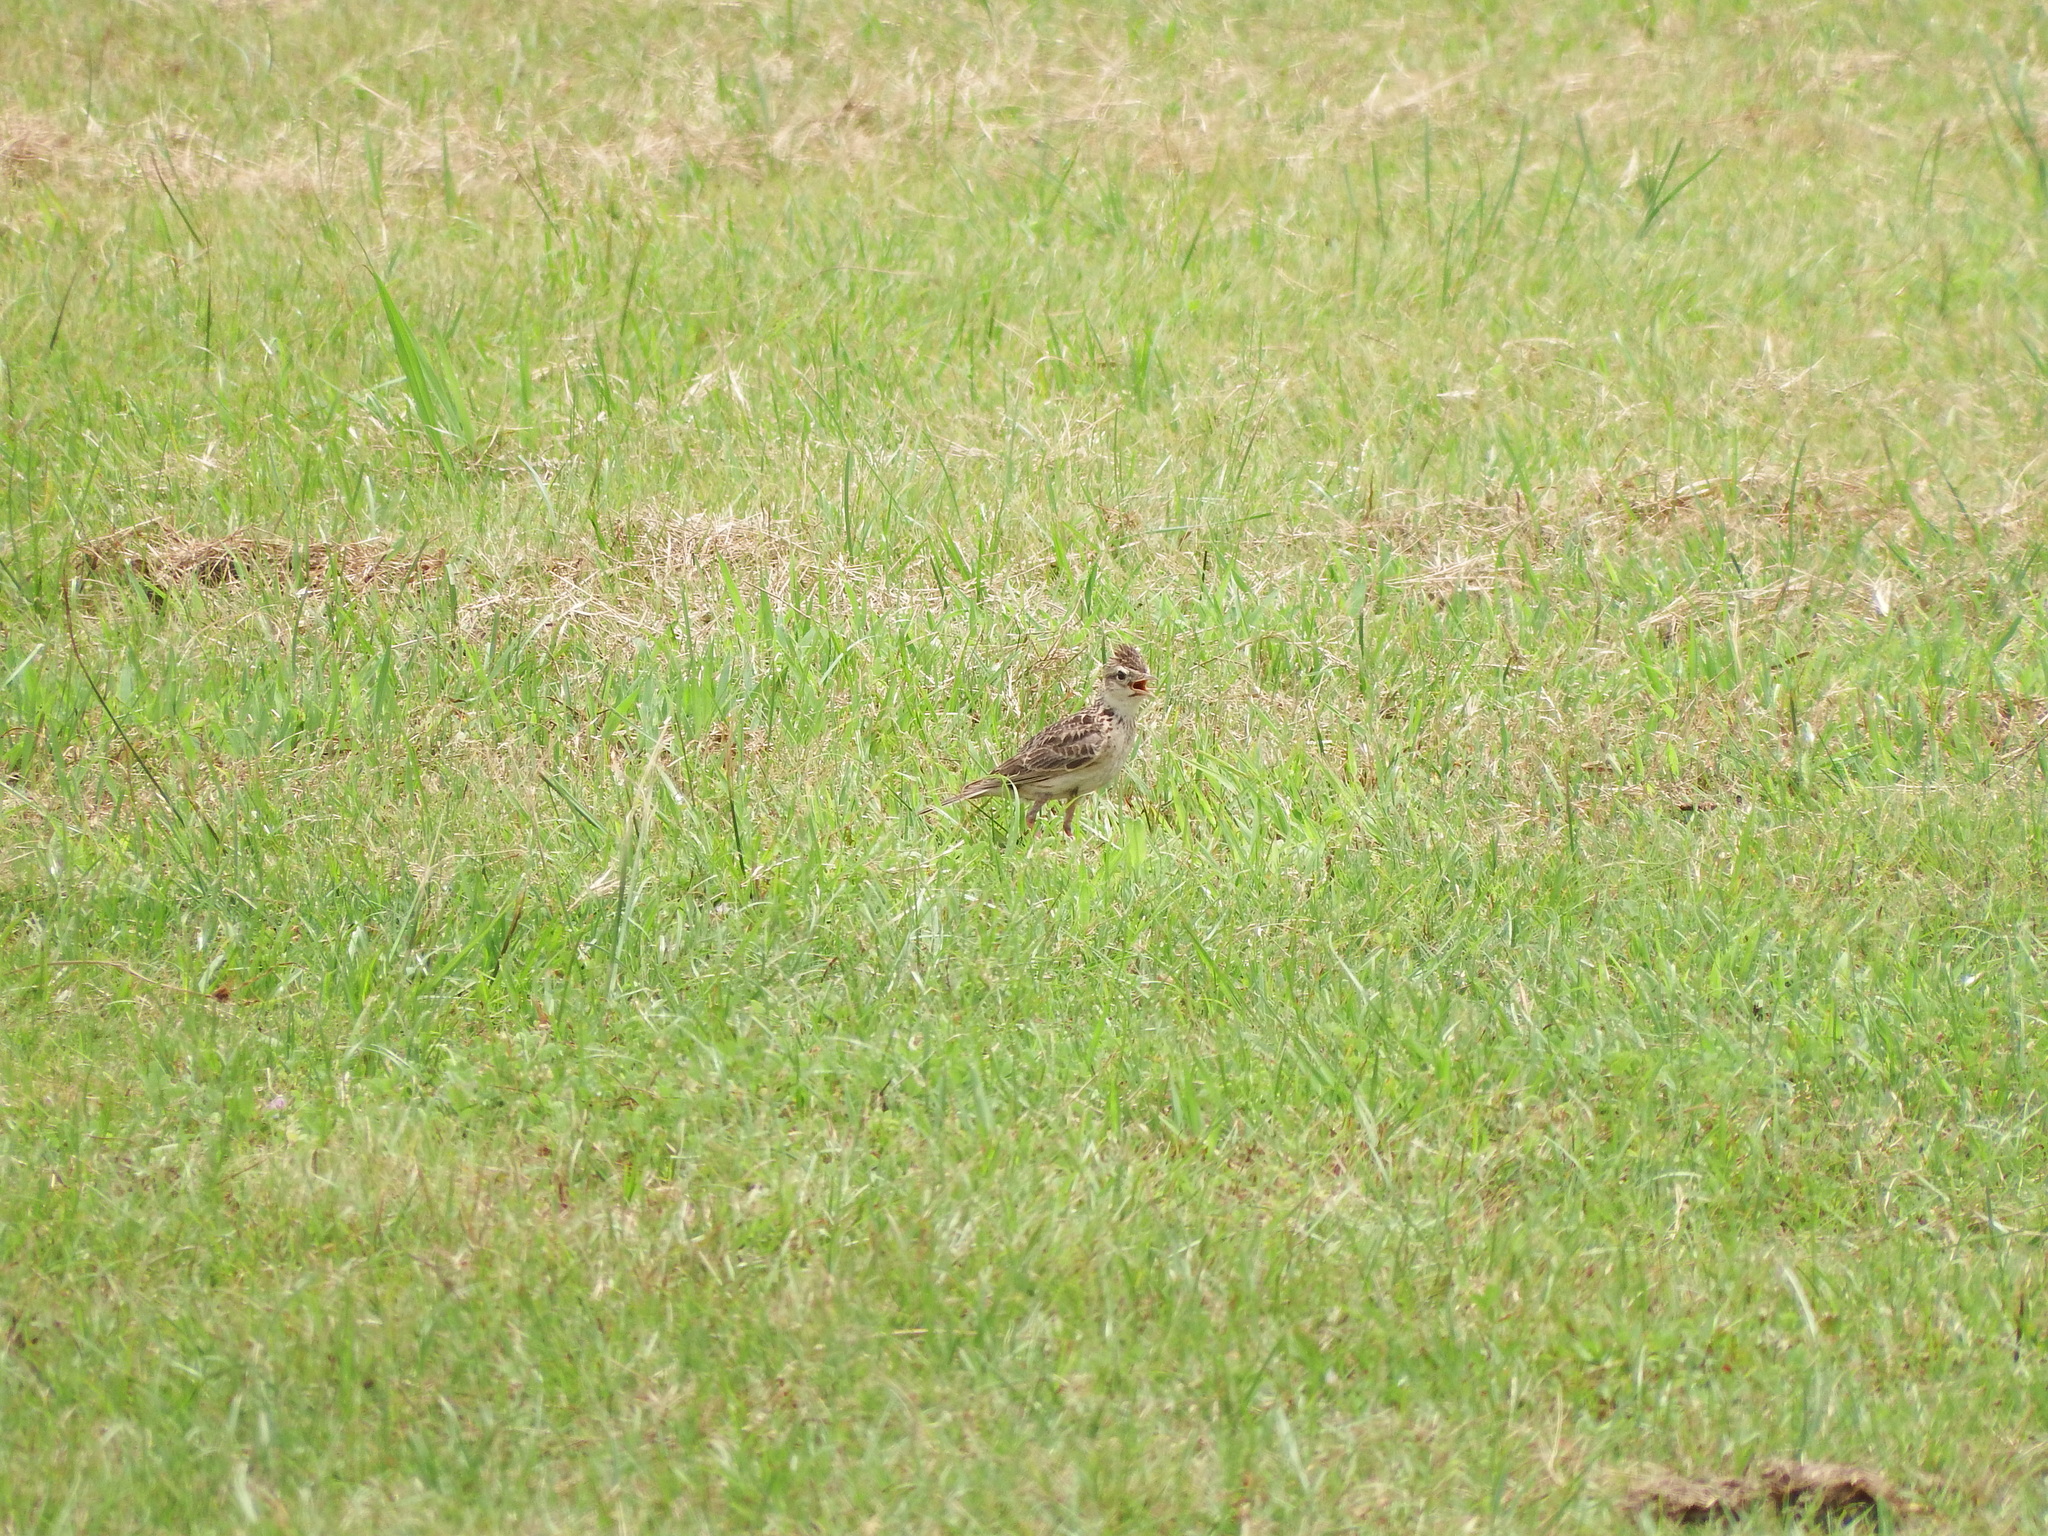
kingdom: Animalia
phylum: Chordata
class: Aves
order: Passeriformes
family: Alaudidae
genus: Alauda
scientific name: Alauda gulgula
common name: Oriental skylark
